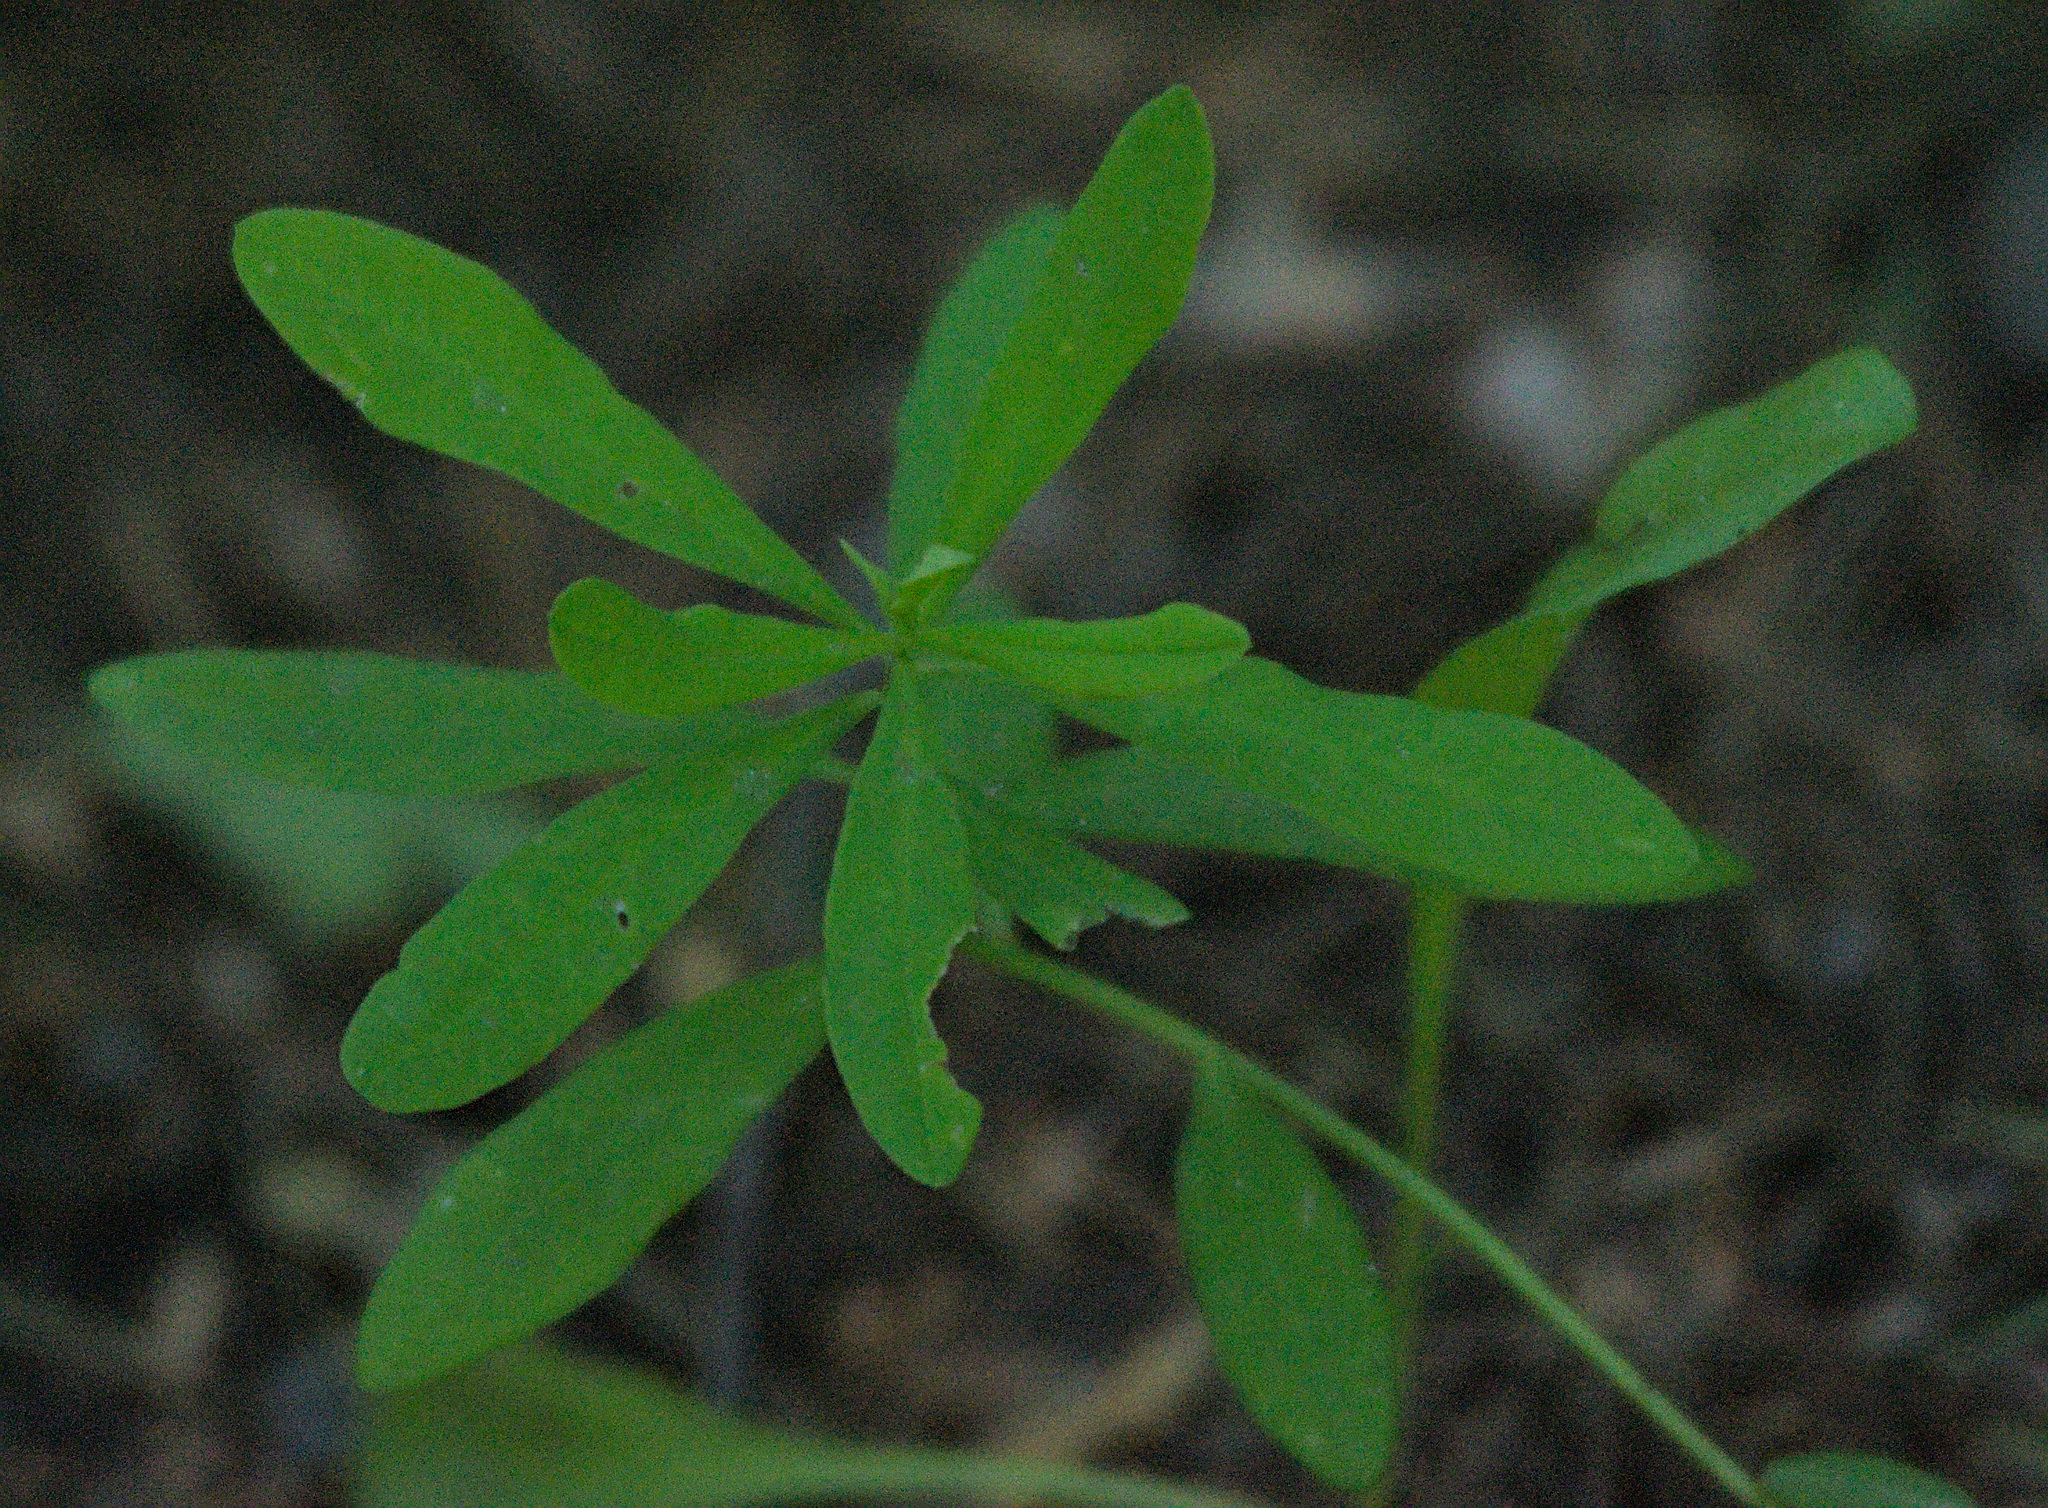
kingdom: Plantae
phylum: Tracheophyta
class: Magnoliopsida
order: Malpighiales
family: Euphorbiaceae
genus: Euphorbia
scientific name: Euphorbia borealis
